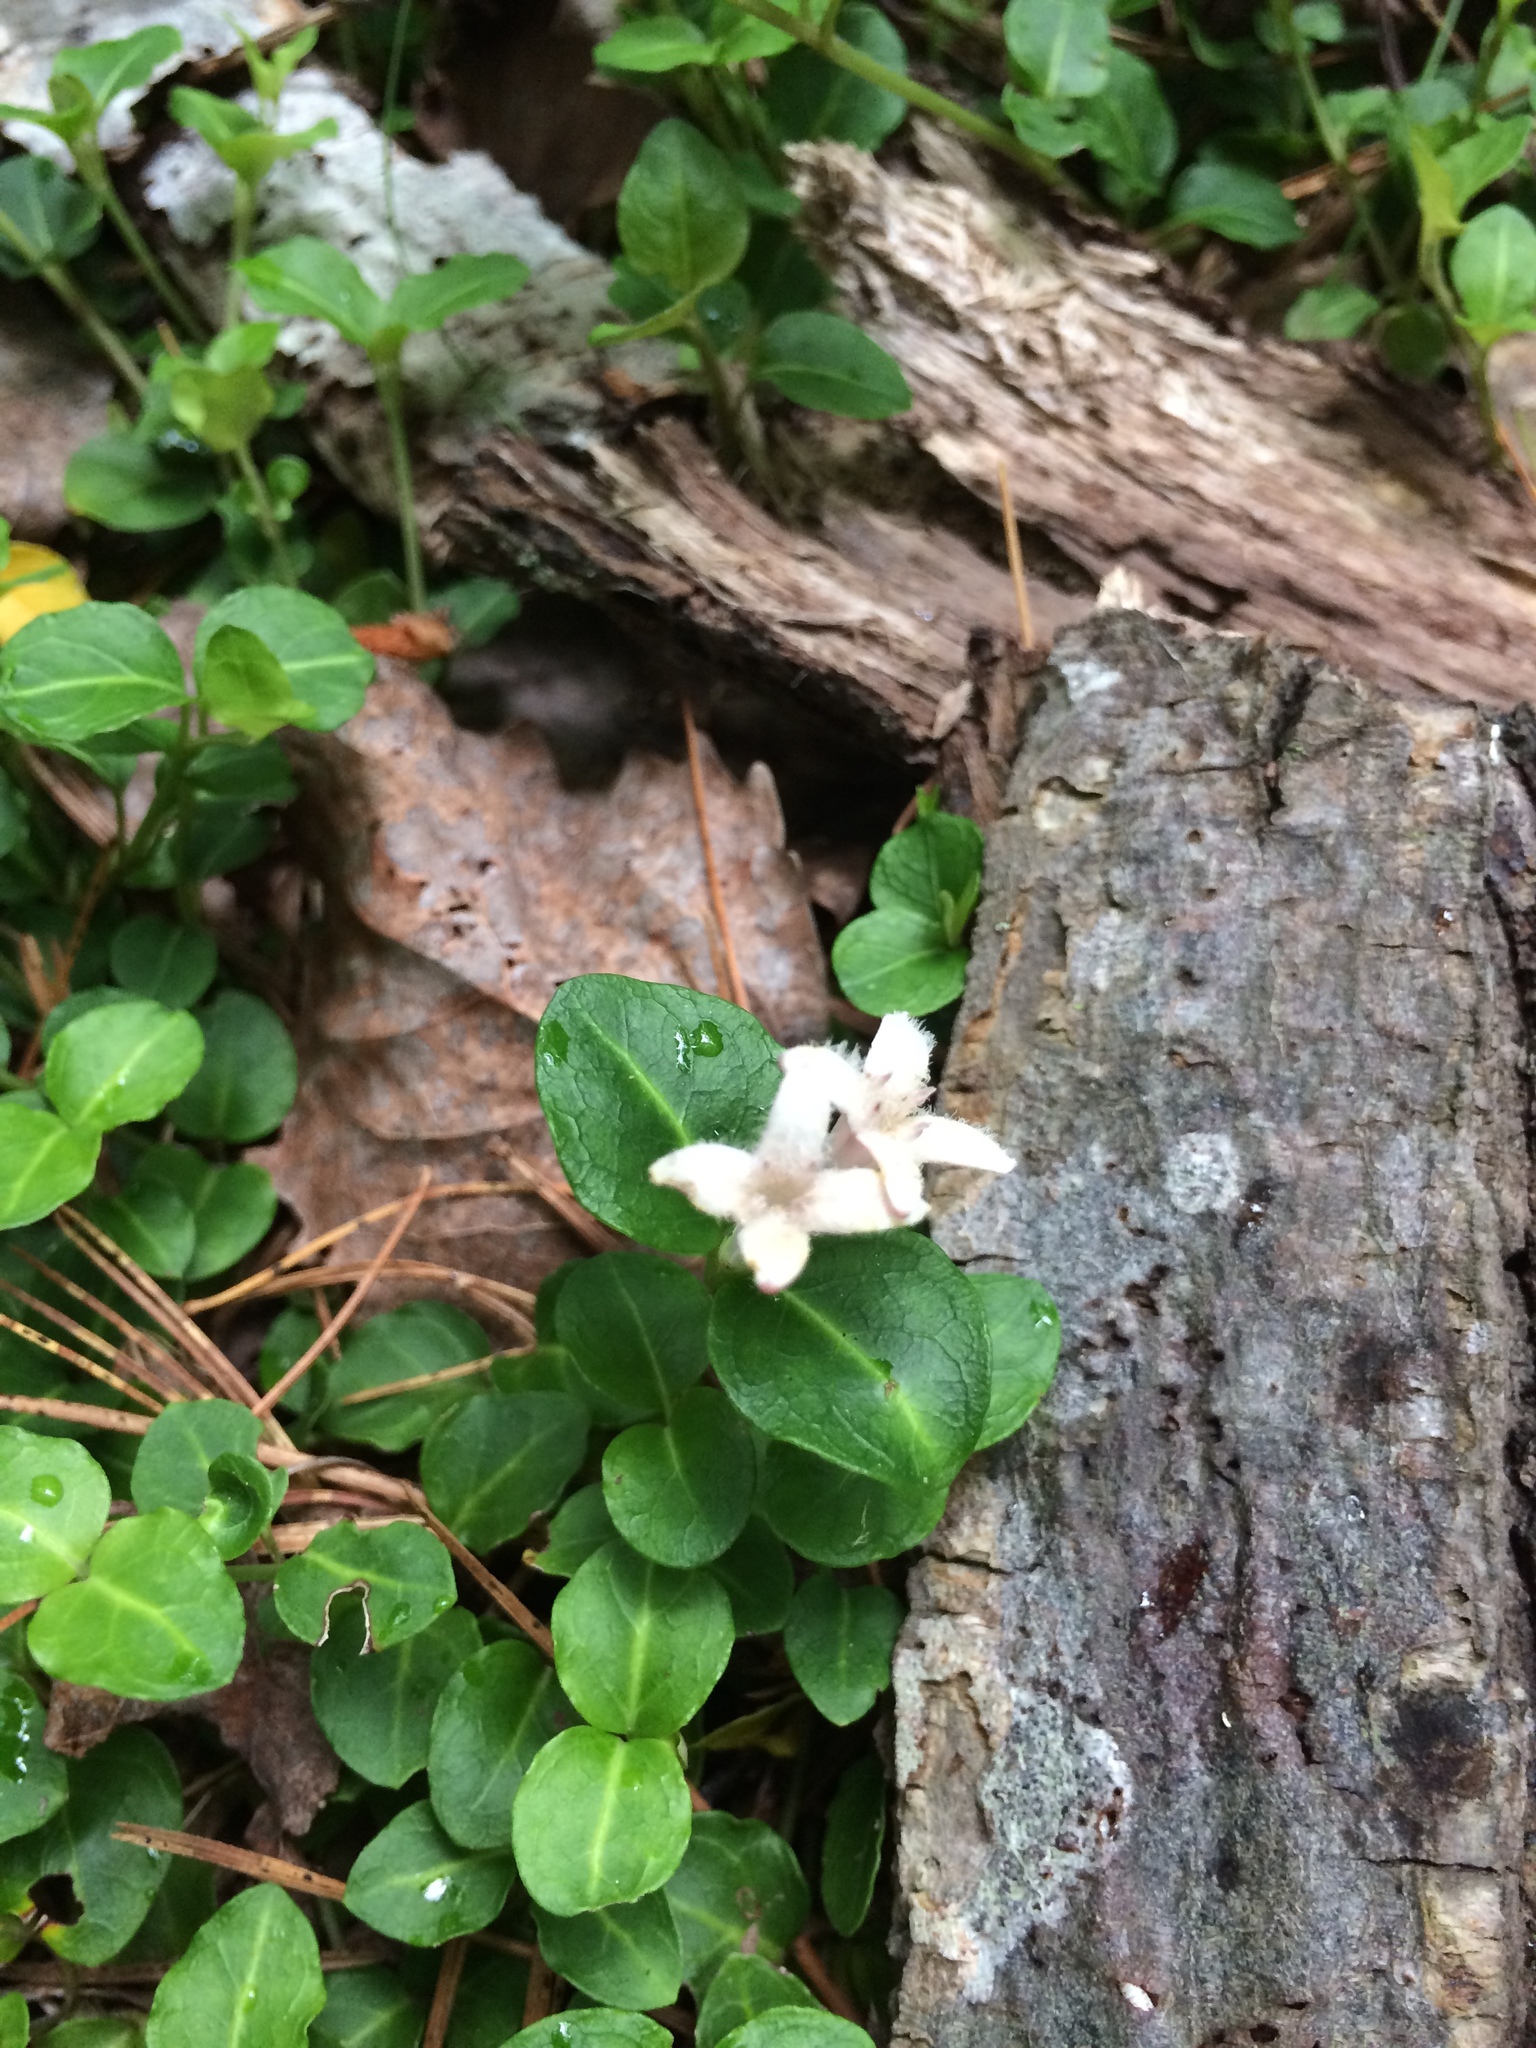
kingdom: Plantae
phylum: Tracheophyta
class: Magnoliopsida
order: Gentianales
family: Rubiaceae
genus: Mitchella
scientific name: Mitchella repens
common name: Partridge-berry
